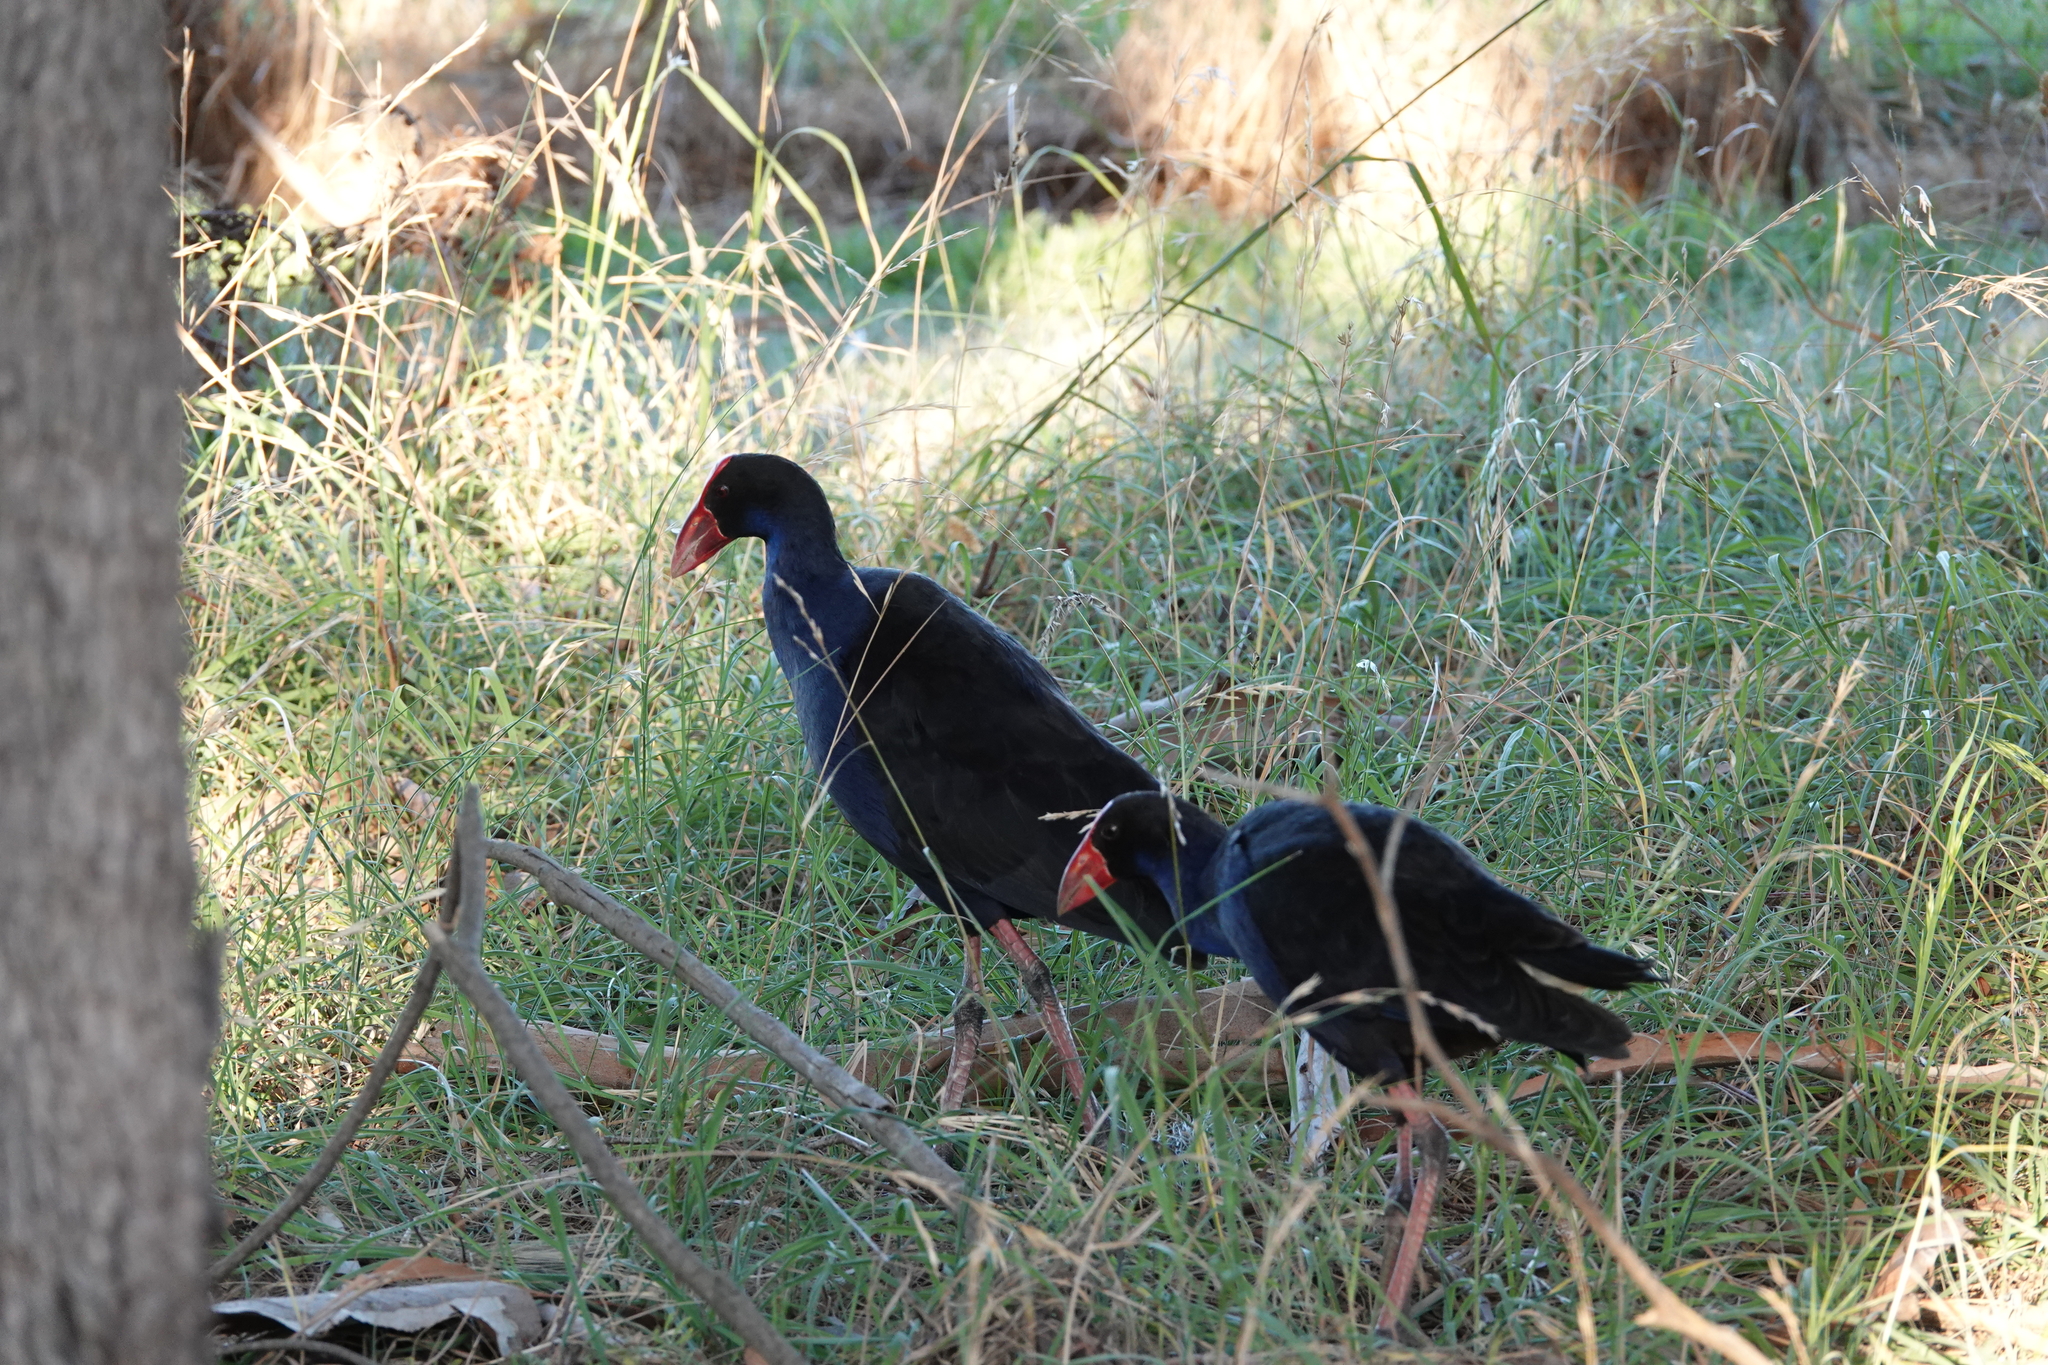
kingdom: Animalia
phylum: Chordata
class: Aves
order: Gruiformes
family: Rallidae
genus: Porphyrio
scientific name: Porphyrio melanotus
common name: Australasian swamphen
